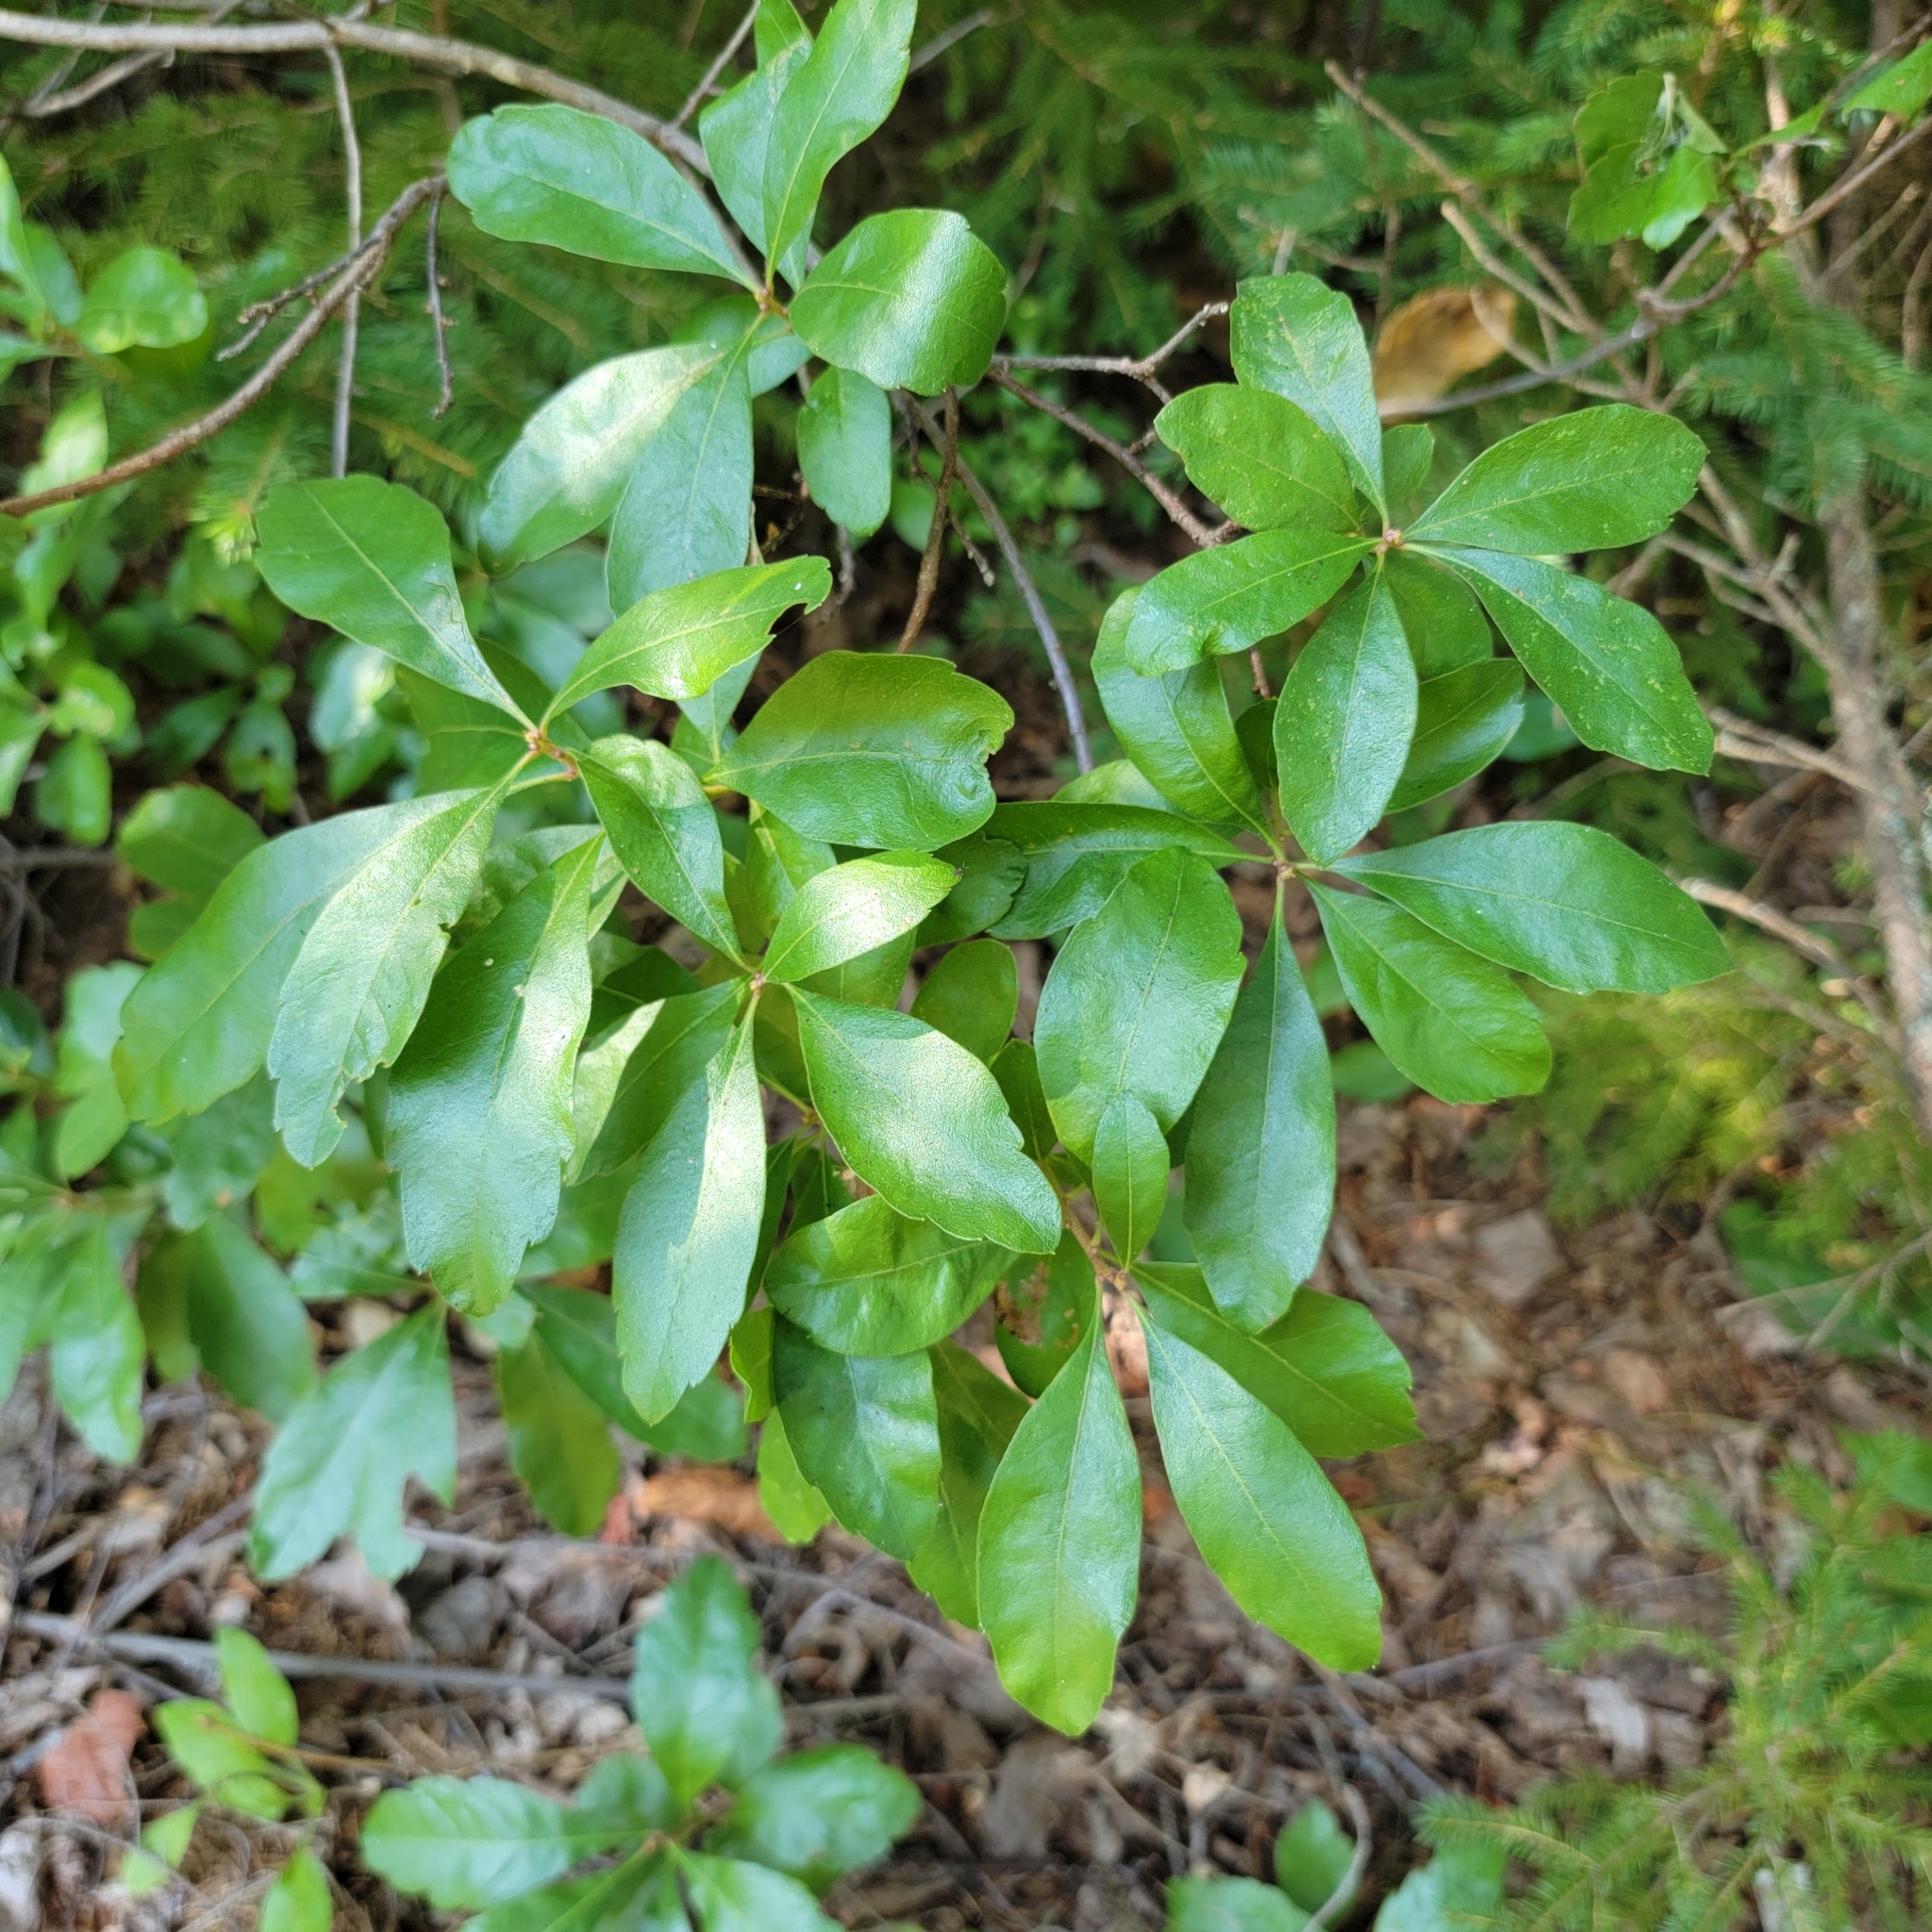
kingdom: Plantae
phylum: Tracheophyta
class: Magnoliopsida
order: Fagales
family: Myricaceae
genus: Morella
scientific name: Morella pensylvanica
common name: Northern bayberry
